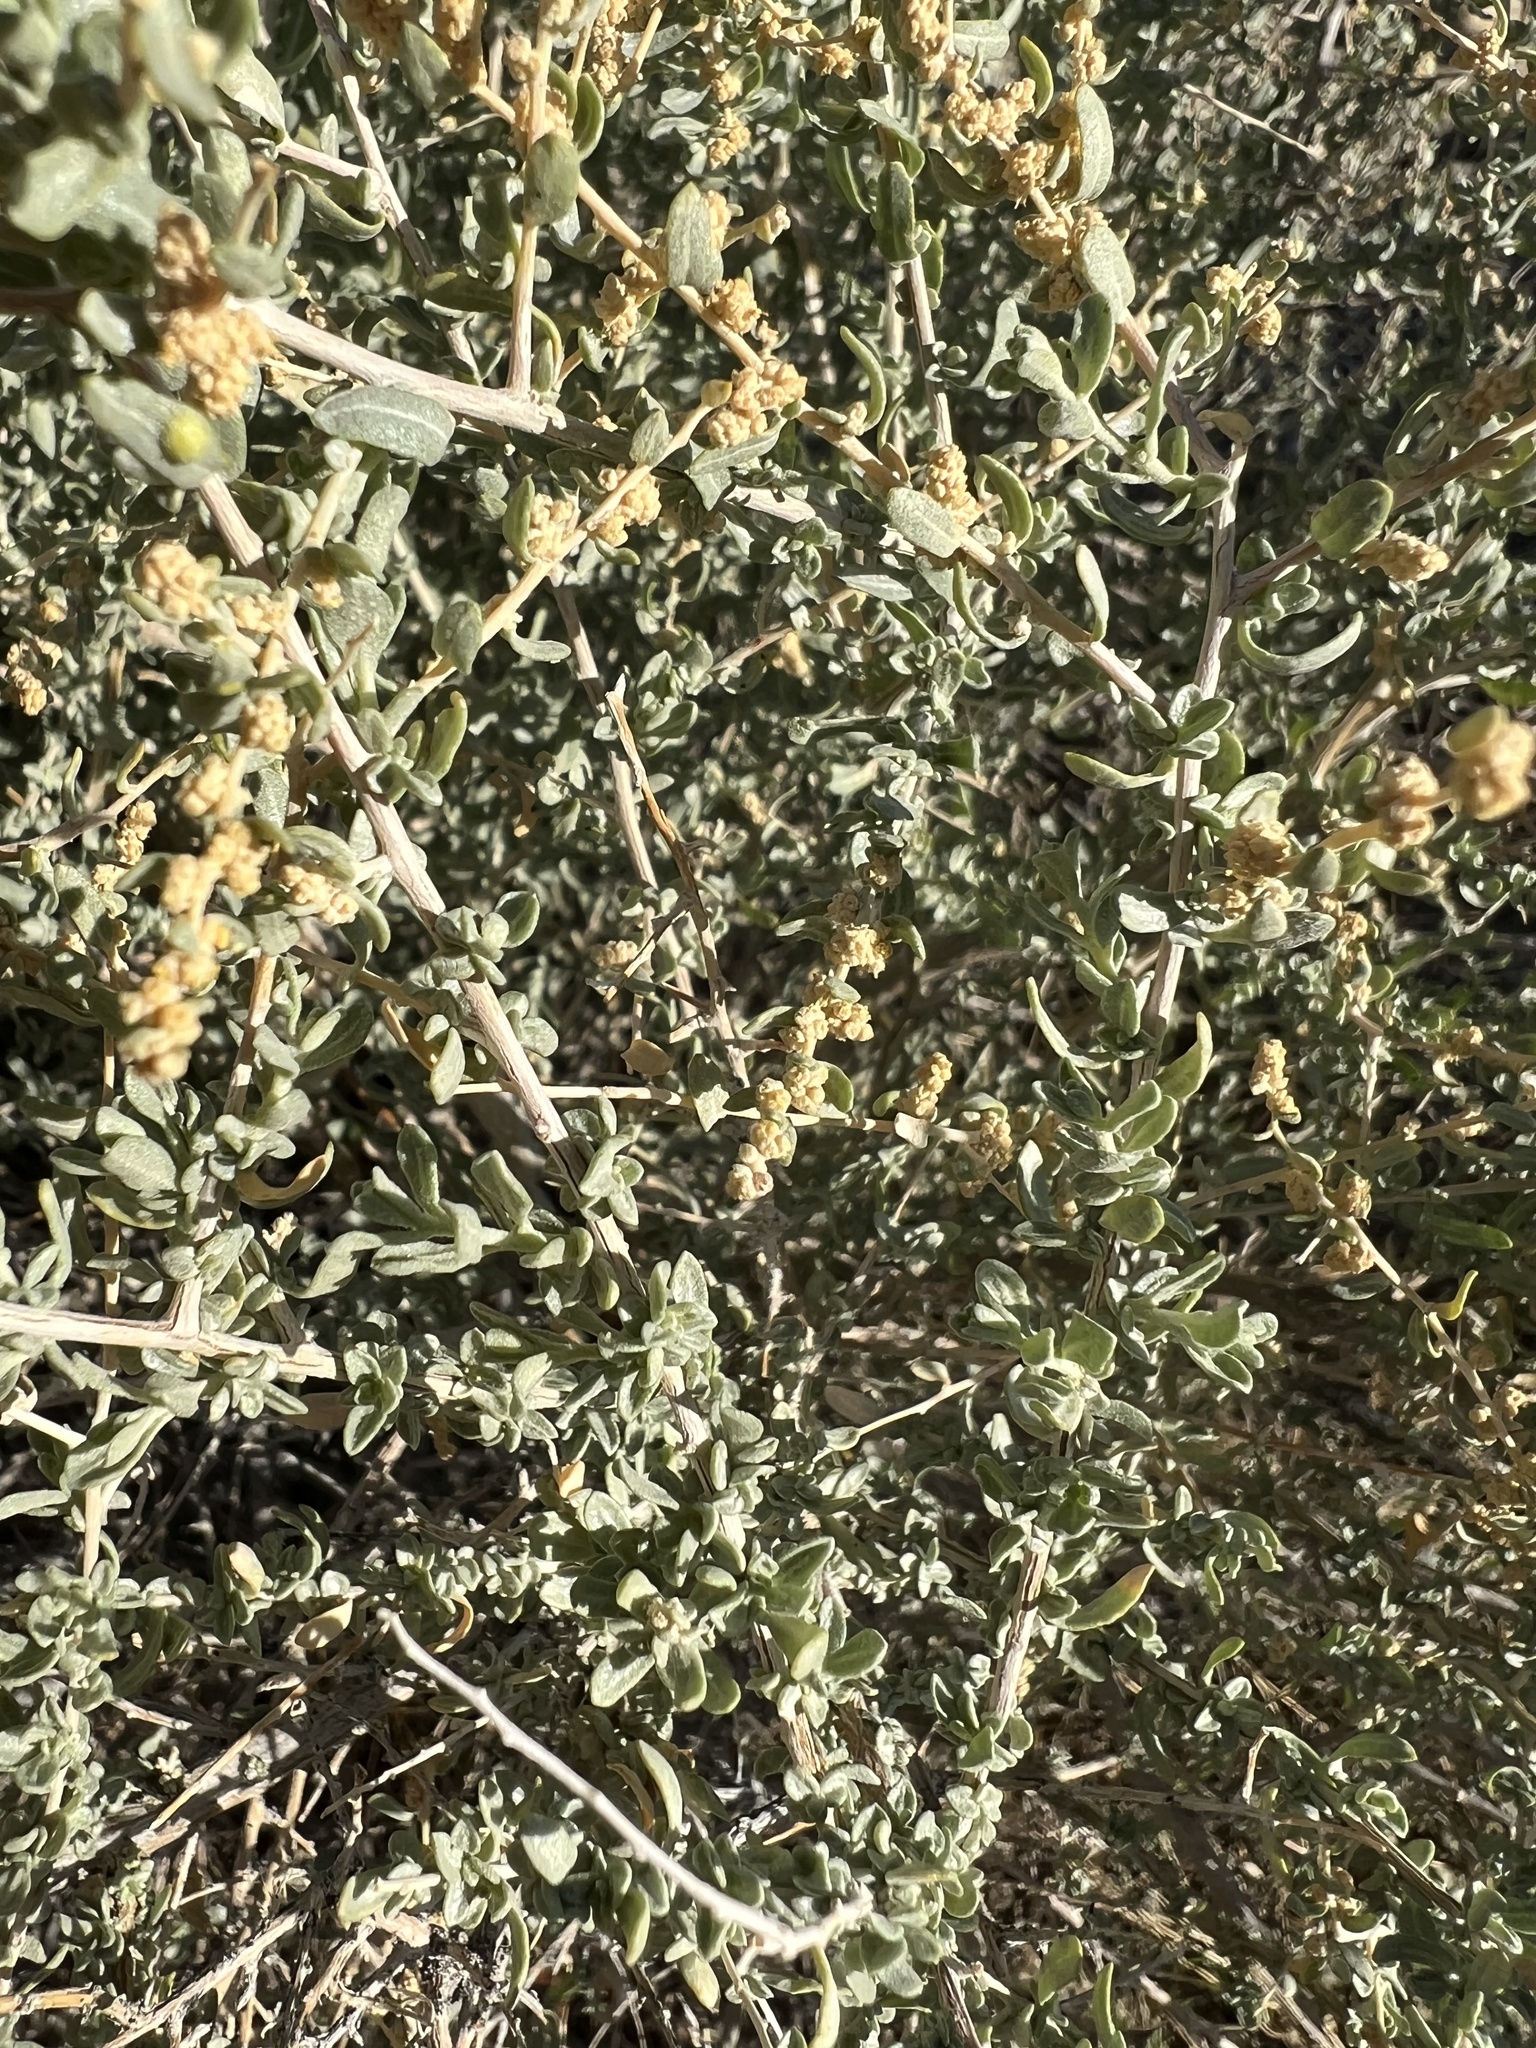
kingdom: Plantae
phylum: Tracheophyta
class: Magnoliopsida
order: Caryophyllales
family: Amaranthaceae
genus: Atriplex
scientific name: Atriplex polycarpa
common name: Desert saltbush
